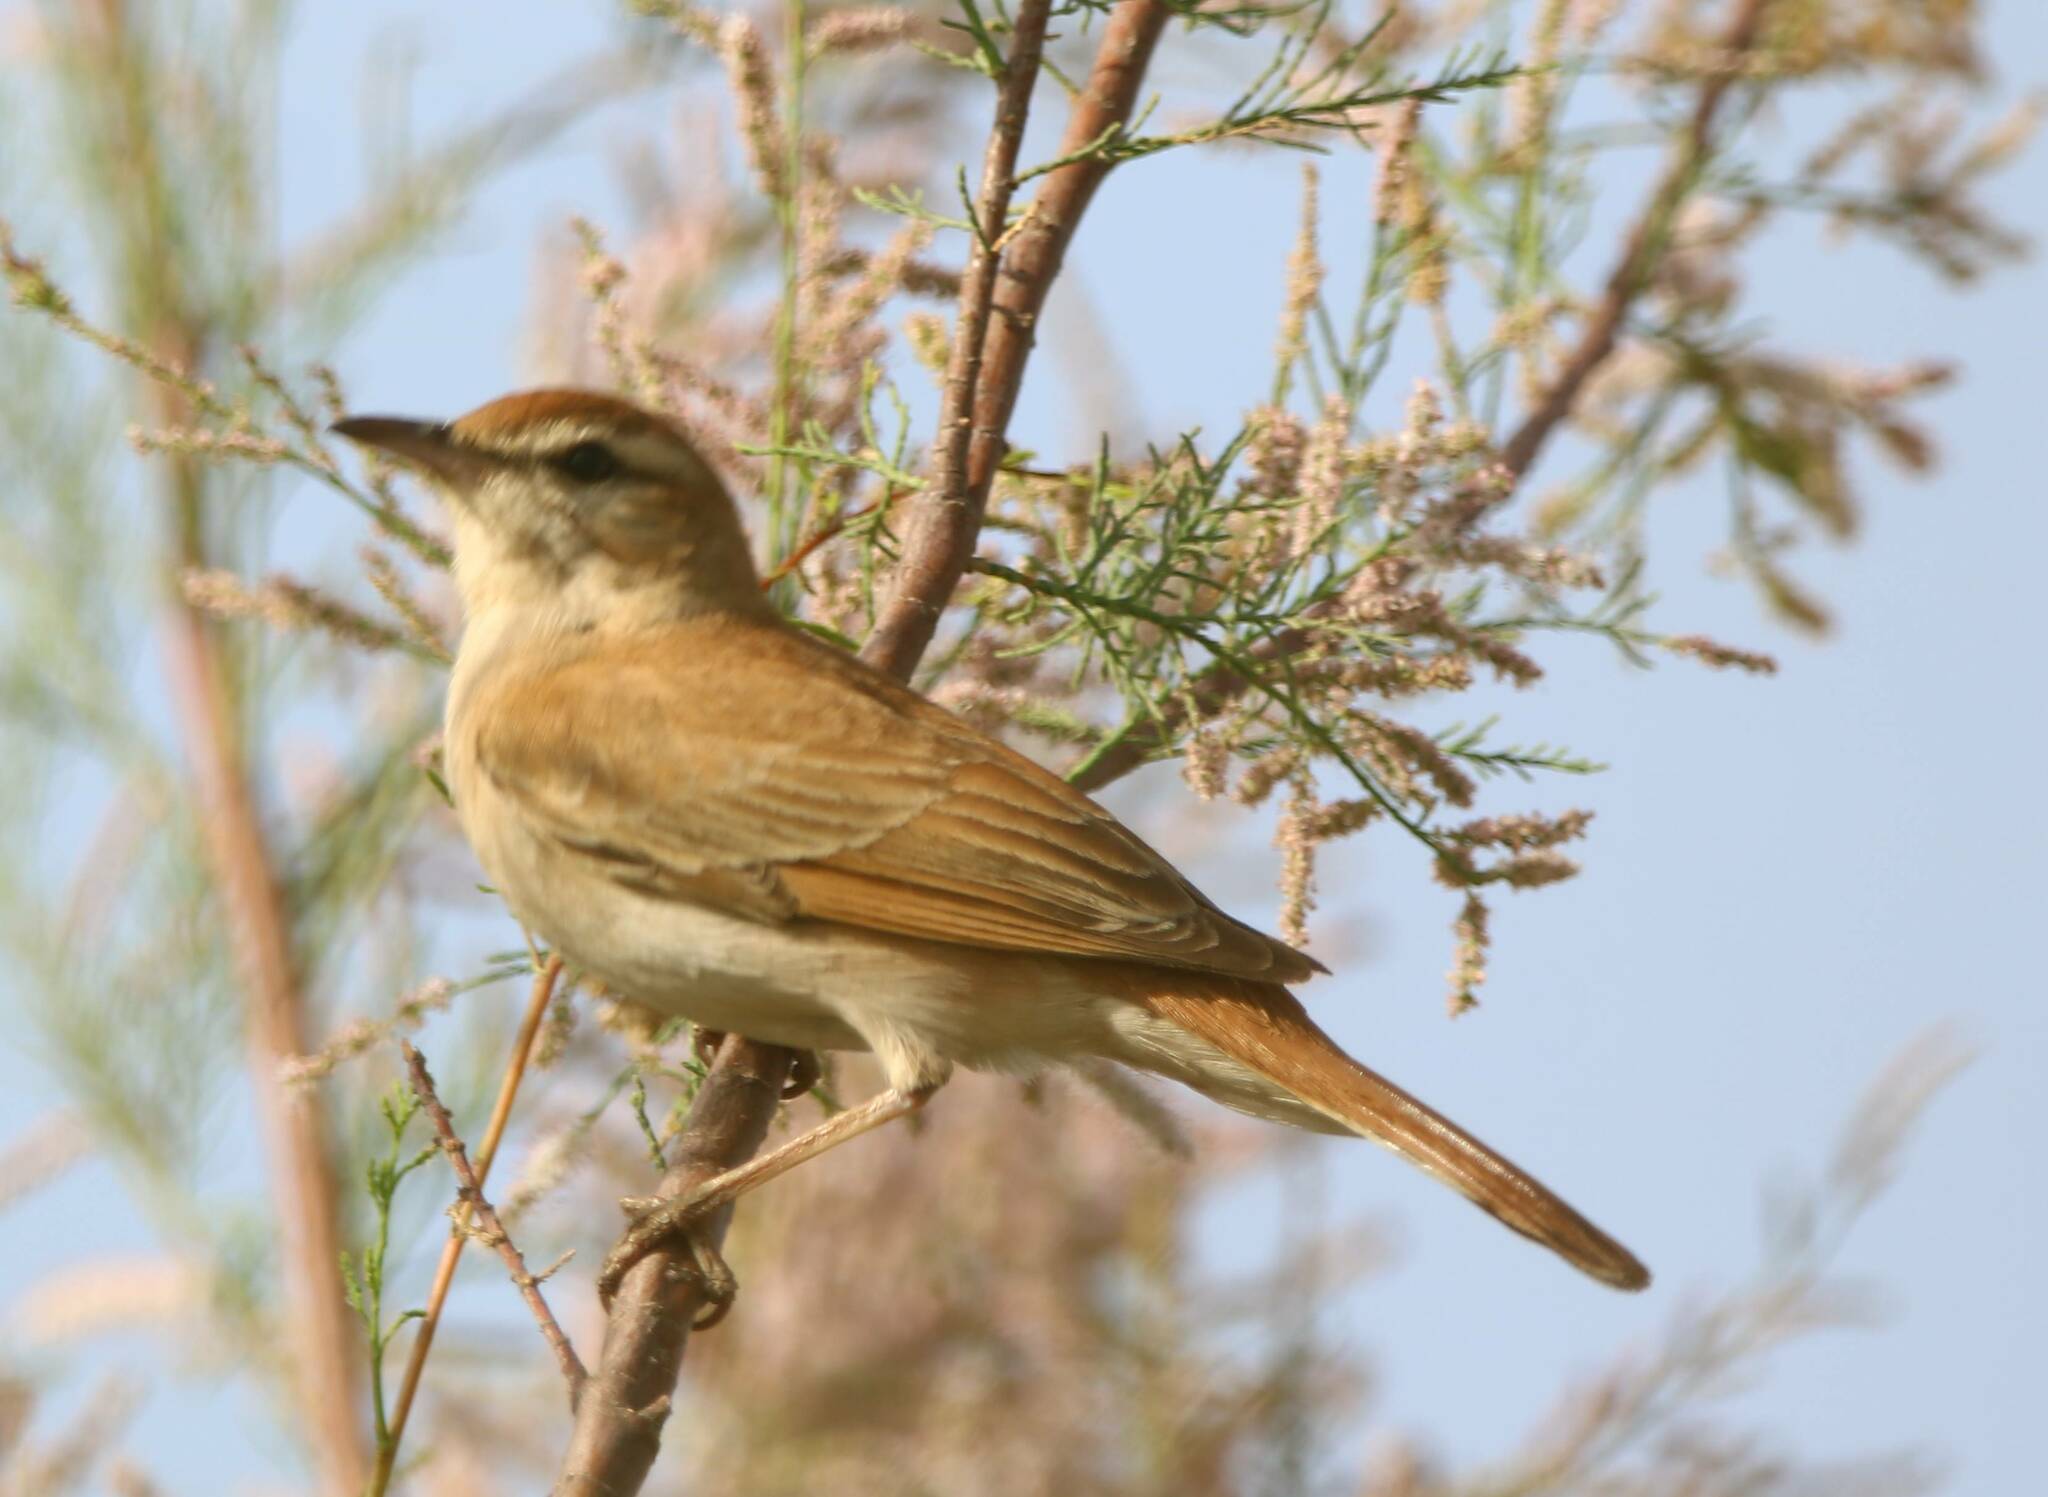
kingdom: Animalia
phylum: Chordata
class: Aves
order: Passeriformes
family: Muscicapidae
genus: Erythropygia
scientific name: Erythropygia galactotes
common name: Rufous-tailed scrub robin
